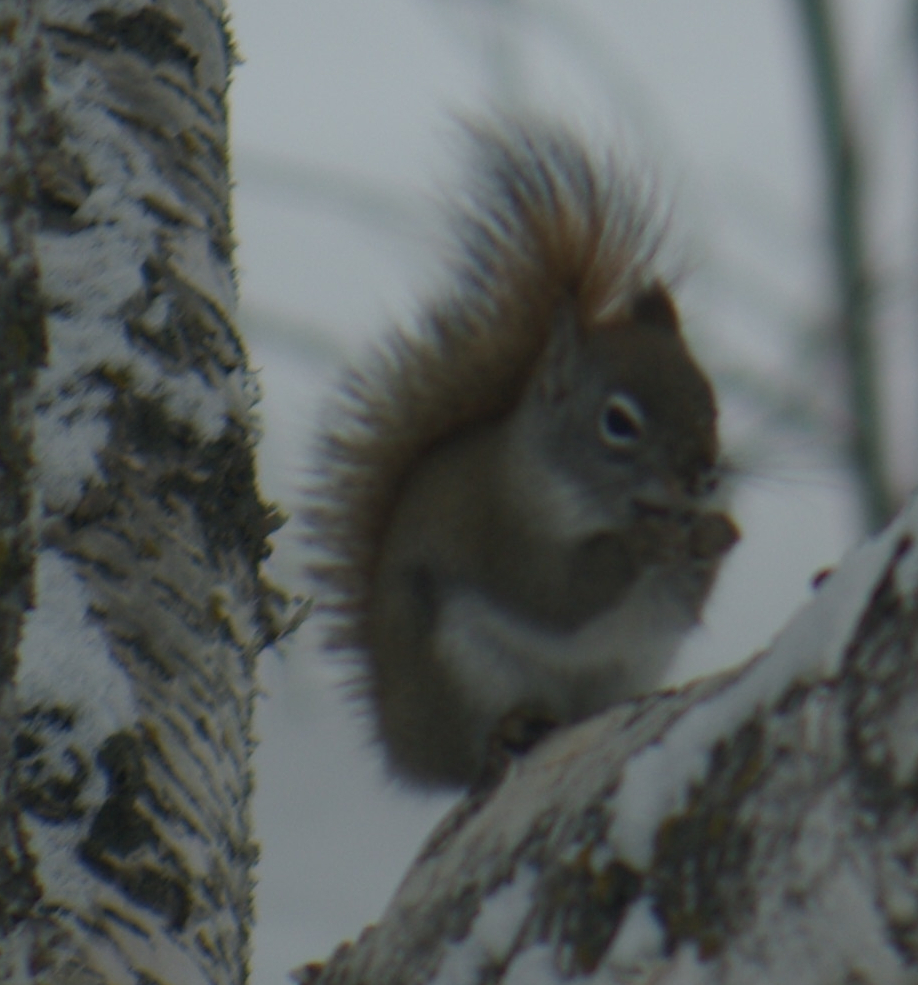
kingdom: Animalia
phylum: Chordata
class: Mammalia
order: Rodentia
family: Sciuridae
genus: Tamiasciurus
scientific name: Tamiasciurus hudsonicus
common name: Red squirrel
